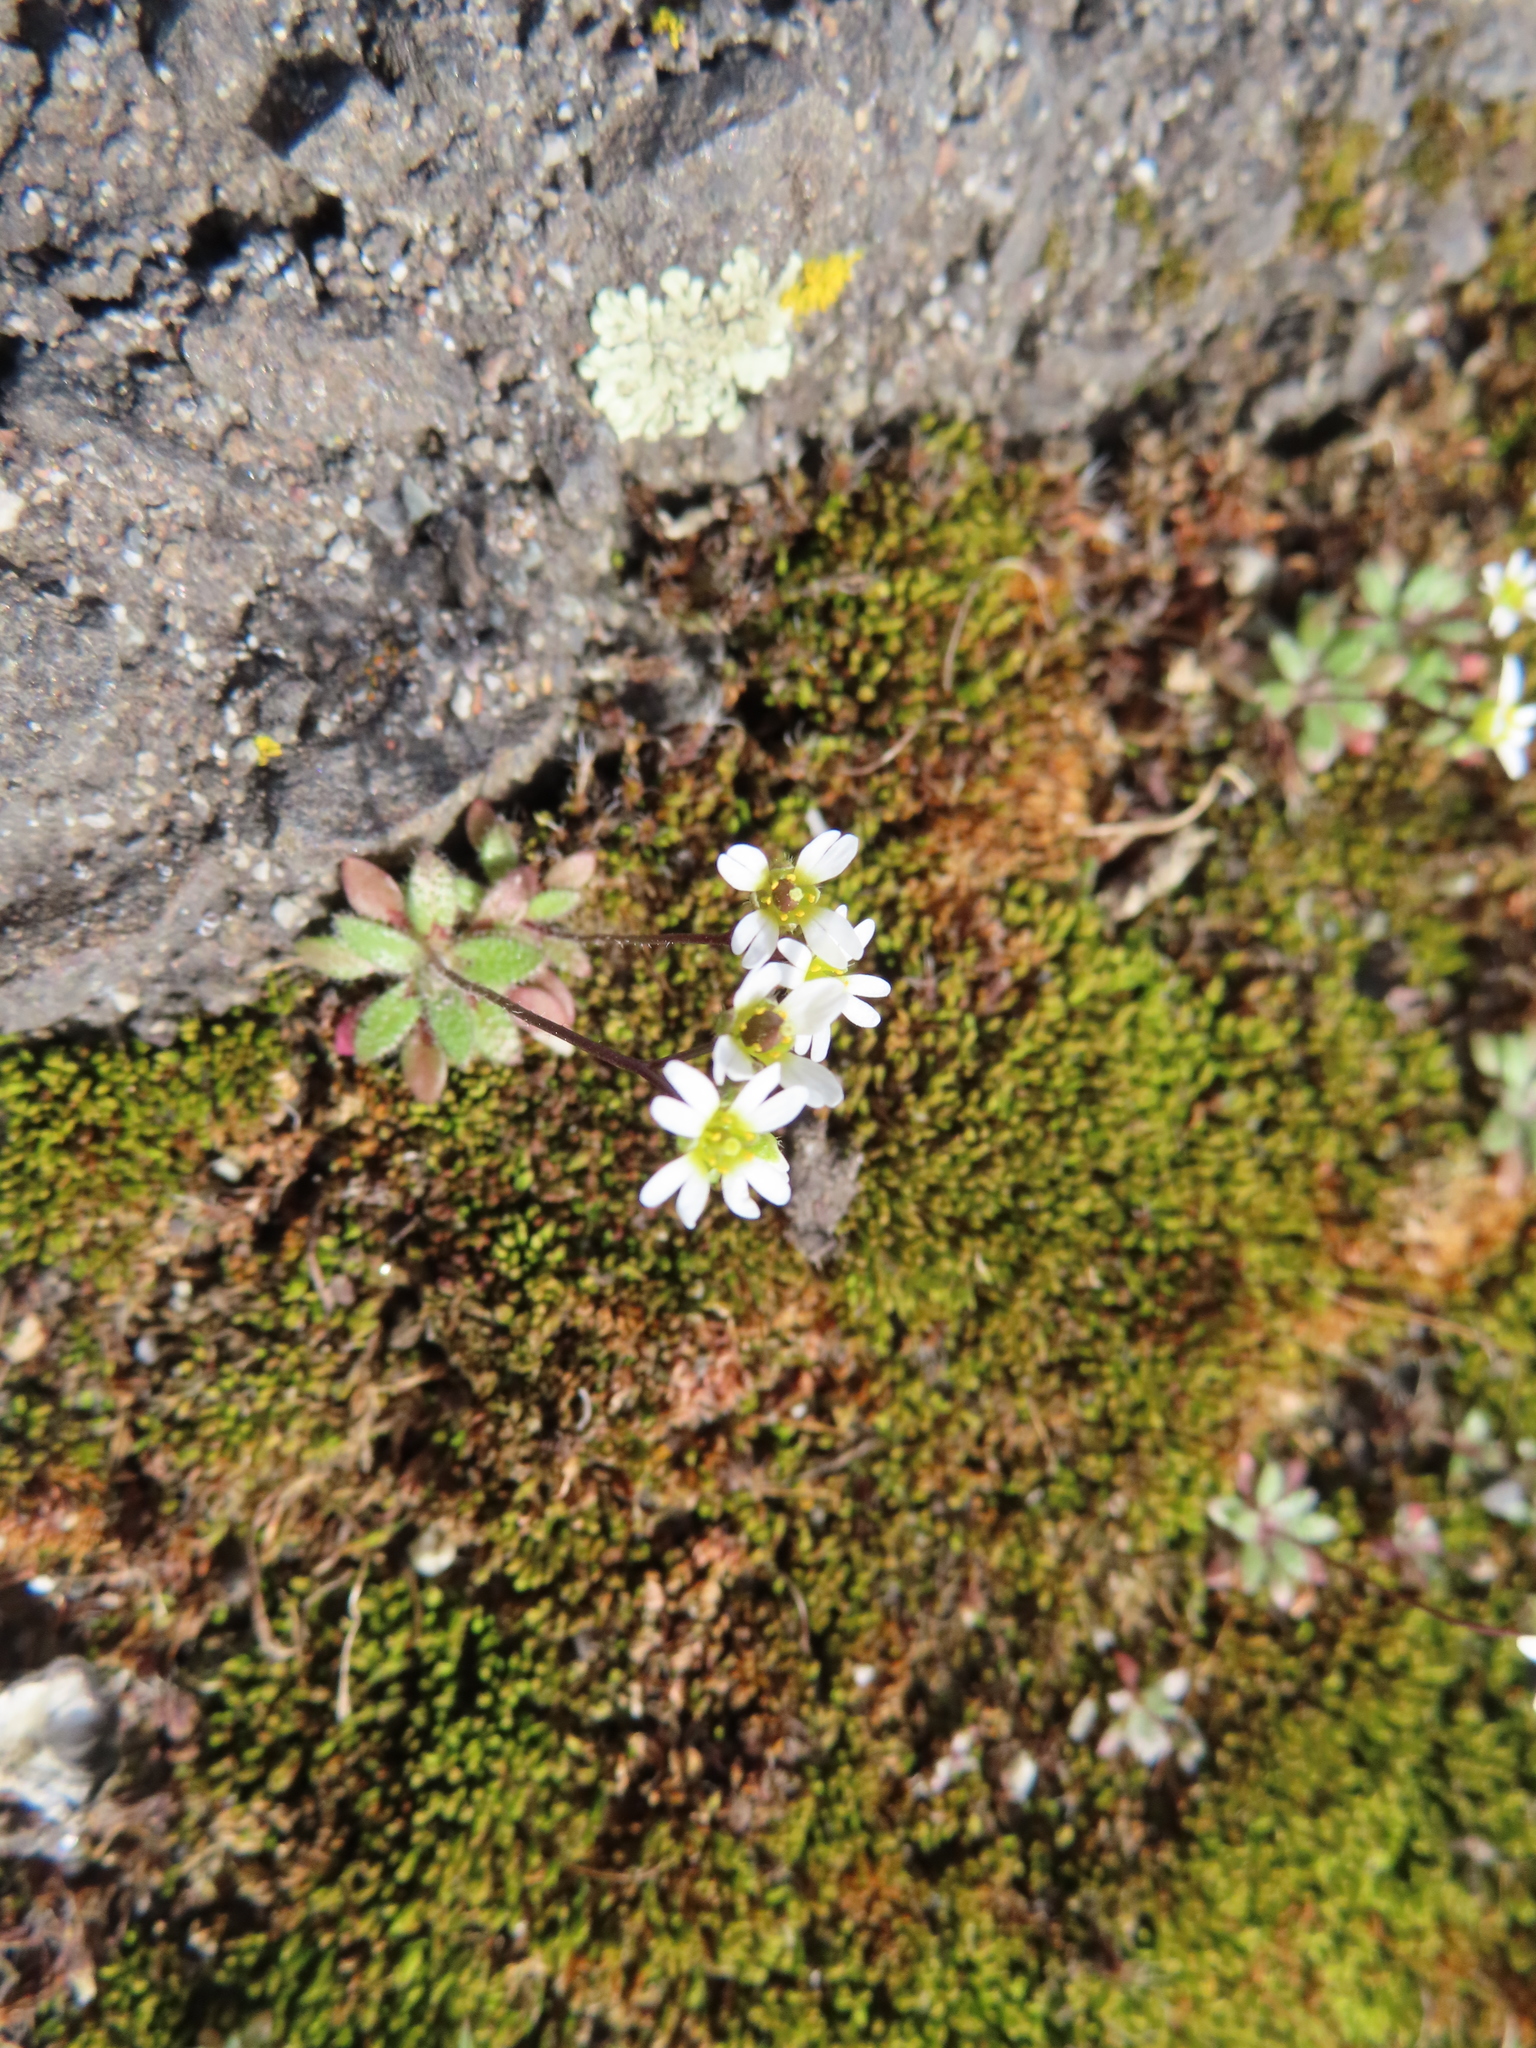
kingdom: Plantae
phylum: Tracheophyta
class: Magnoliopsida
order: Brassicales
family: Brassicaceae
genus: Draba
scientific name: Draba verna
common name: Spring draba
